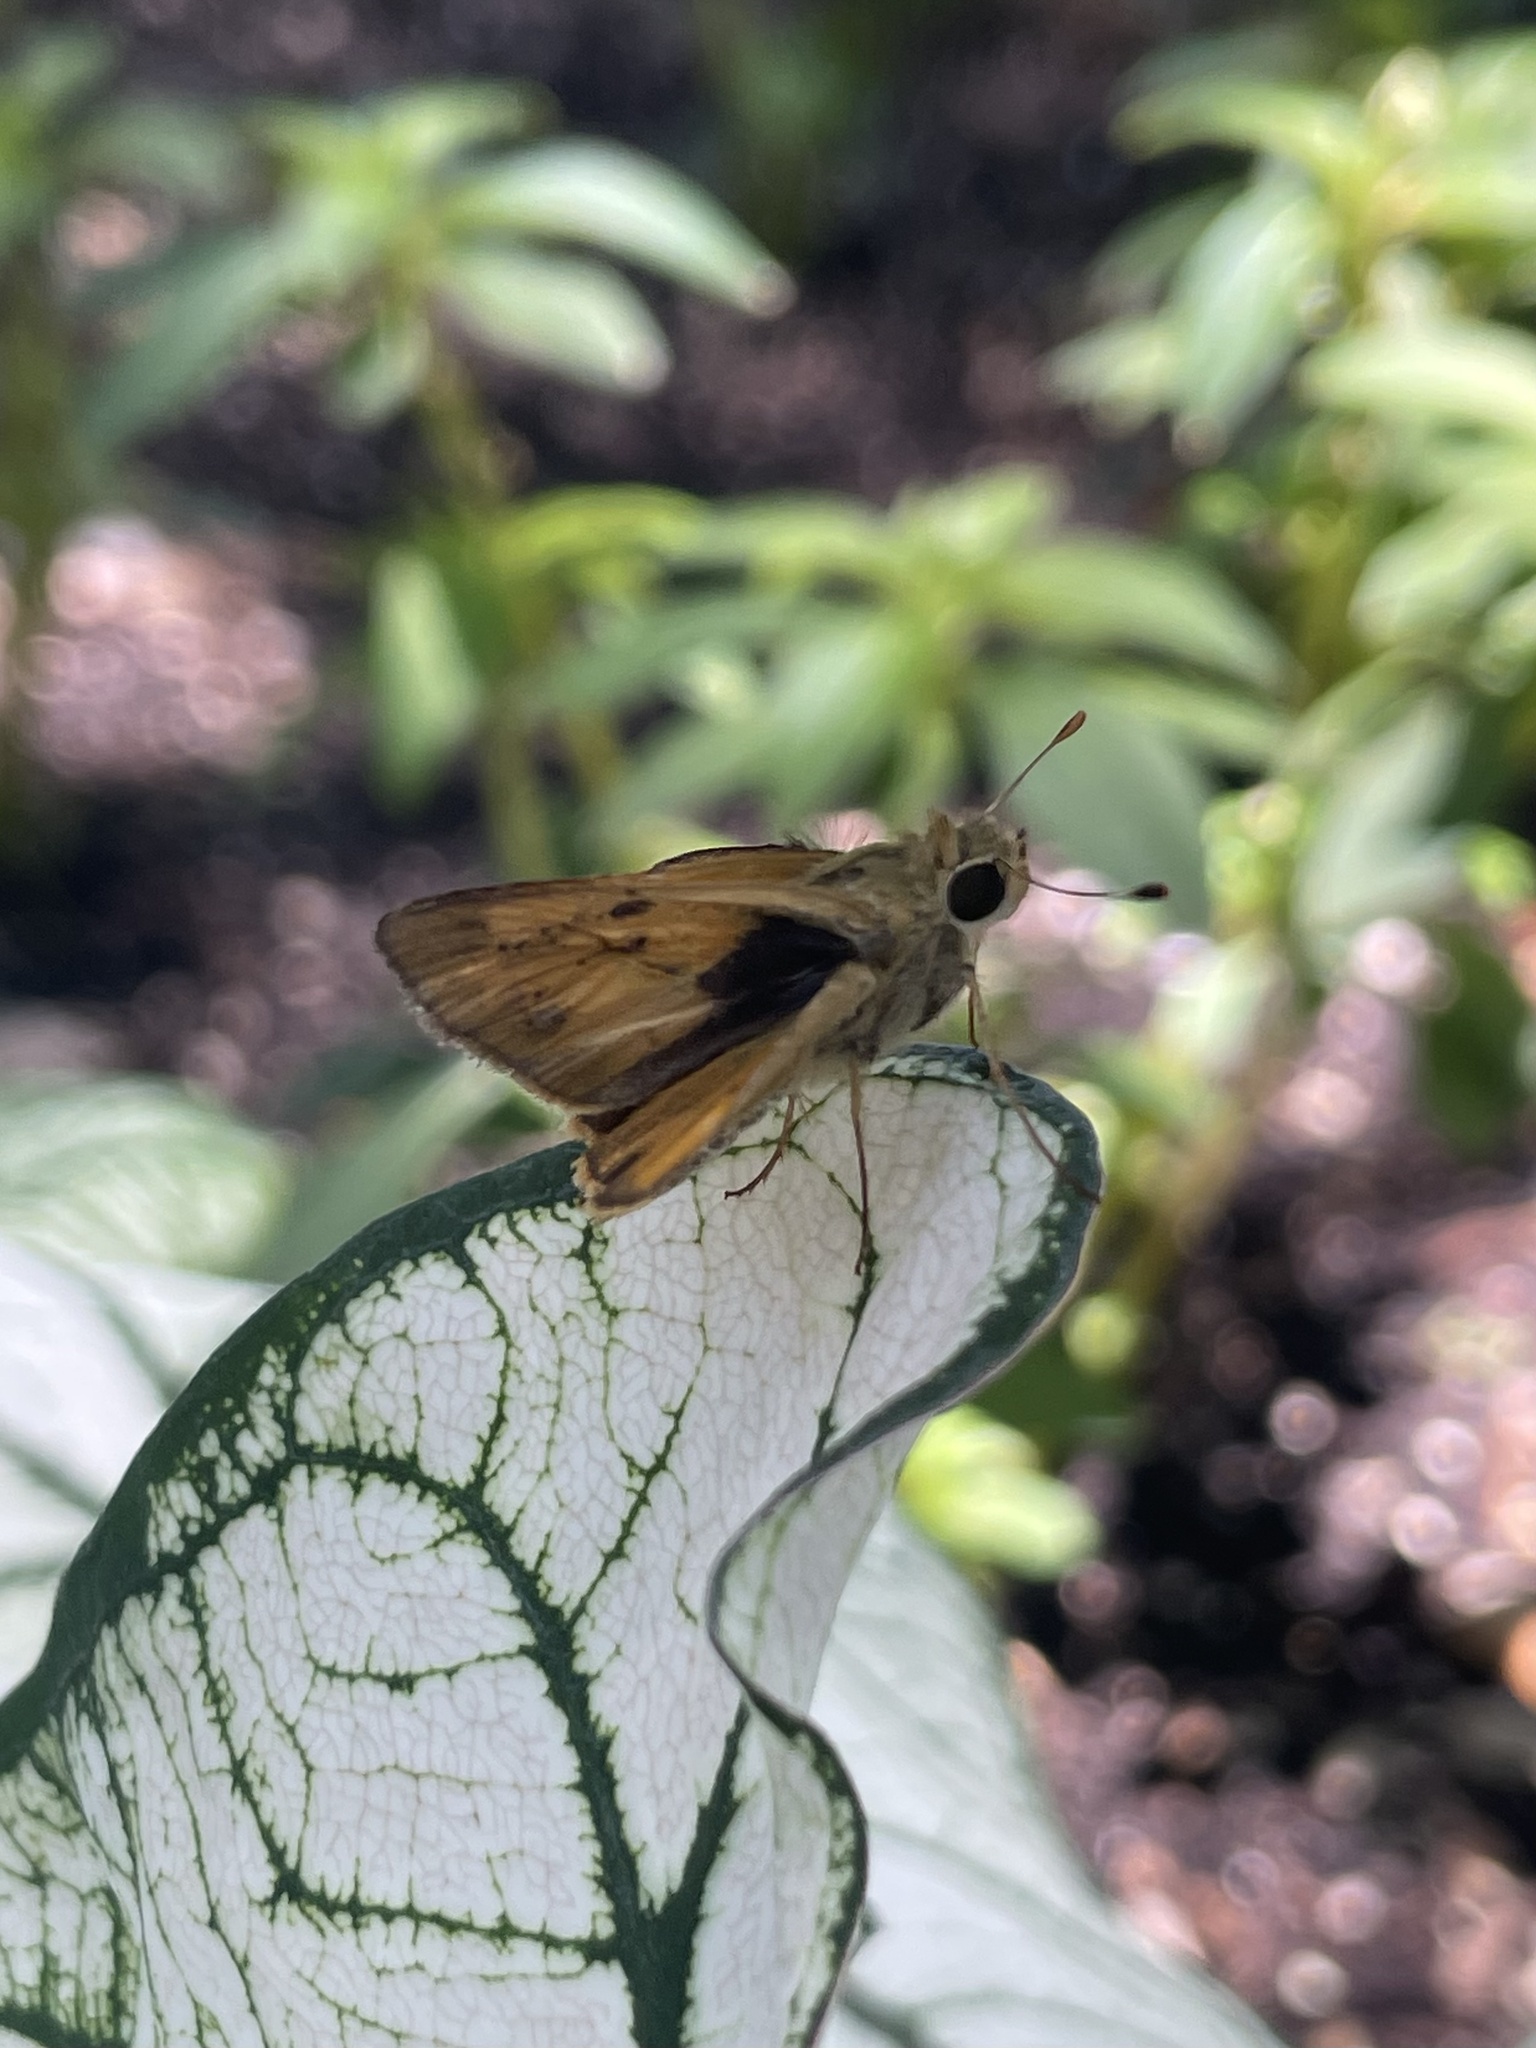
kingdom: Animalia
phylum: Arthropoda
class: Insecta
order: Lepidoptera
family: Hesperiidae
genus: Polites
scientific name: Polites vibex
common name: Whirlabout
